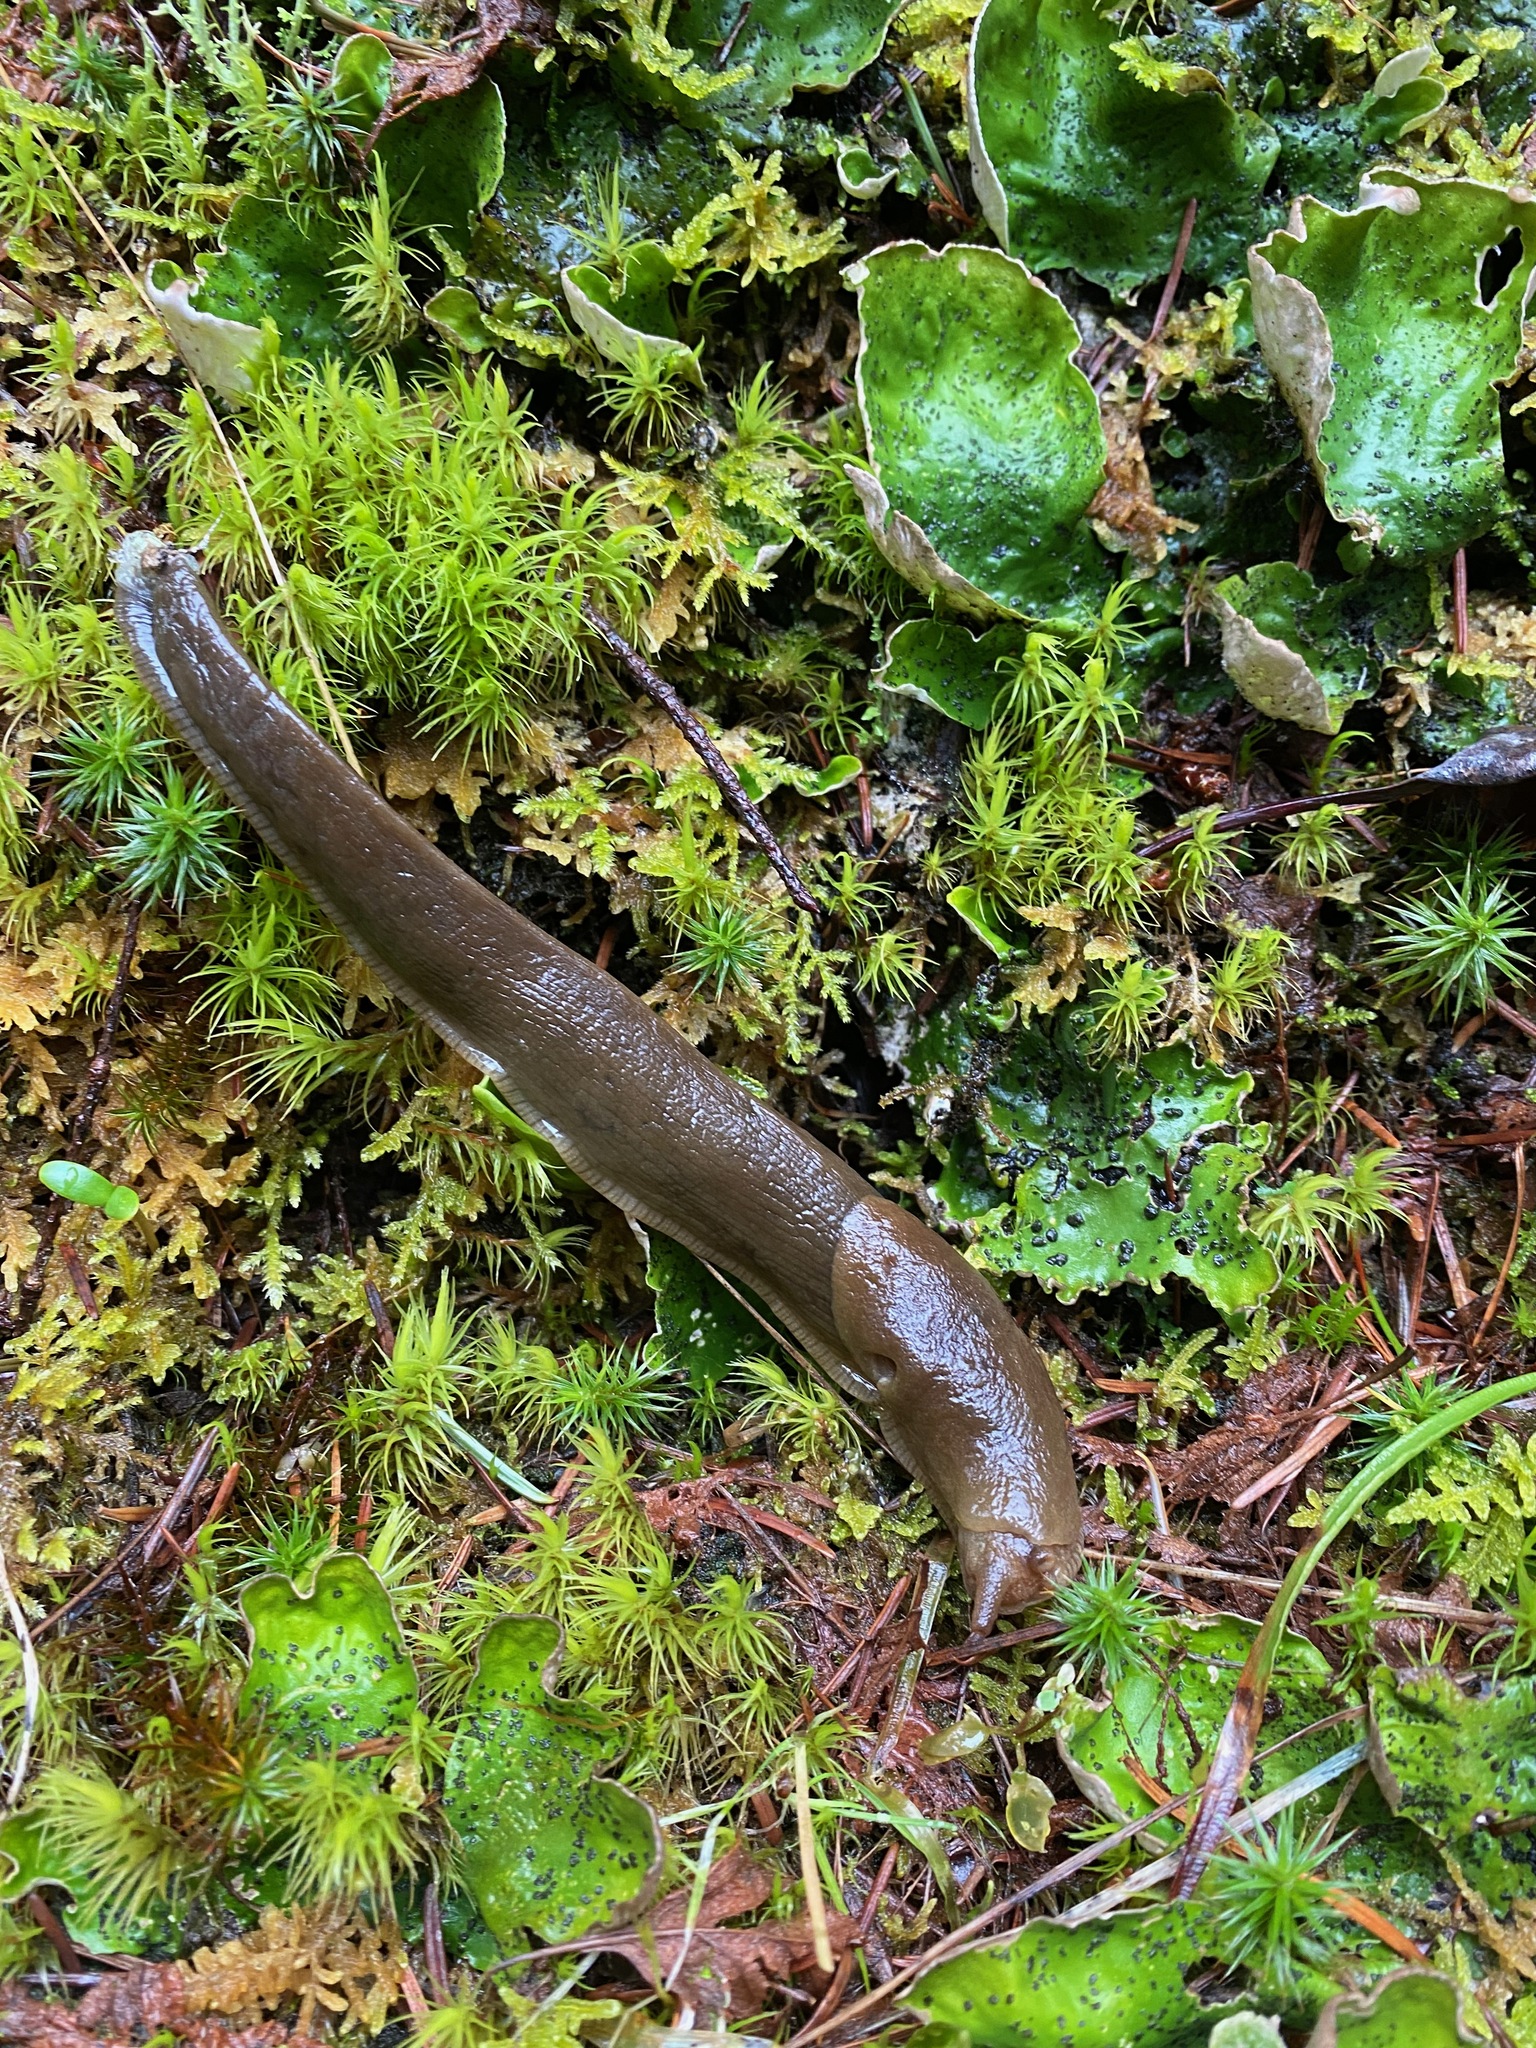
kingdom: Animalia
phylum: Mollusca
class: Gastropoda
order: Stylommatophora
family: Ariolimacidae
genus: Ariolimax
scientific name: Ariolimax columbianus
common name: Pacific banana slug
